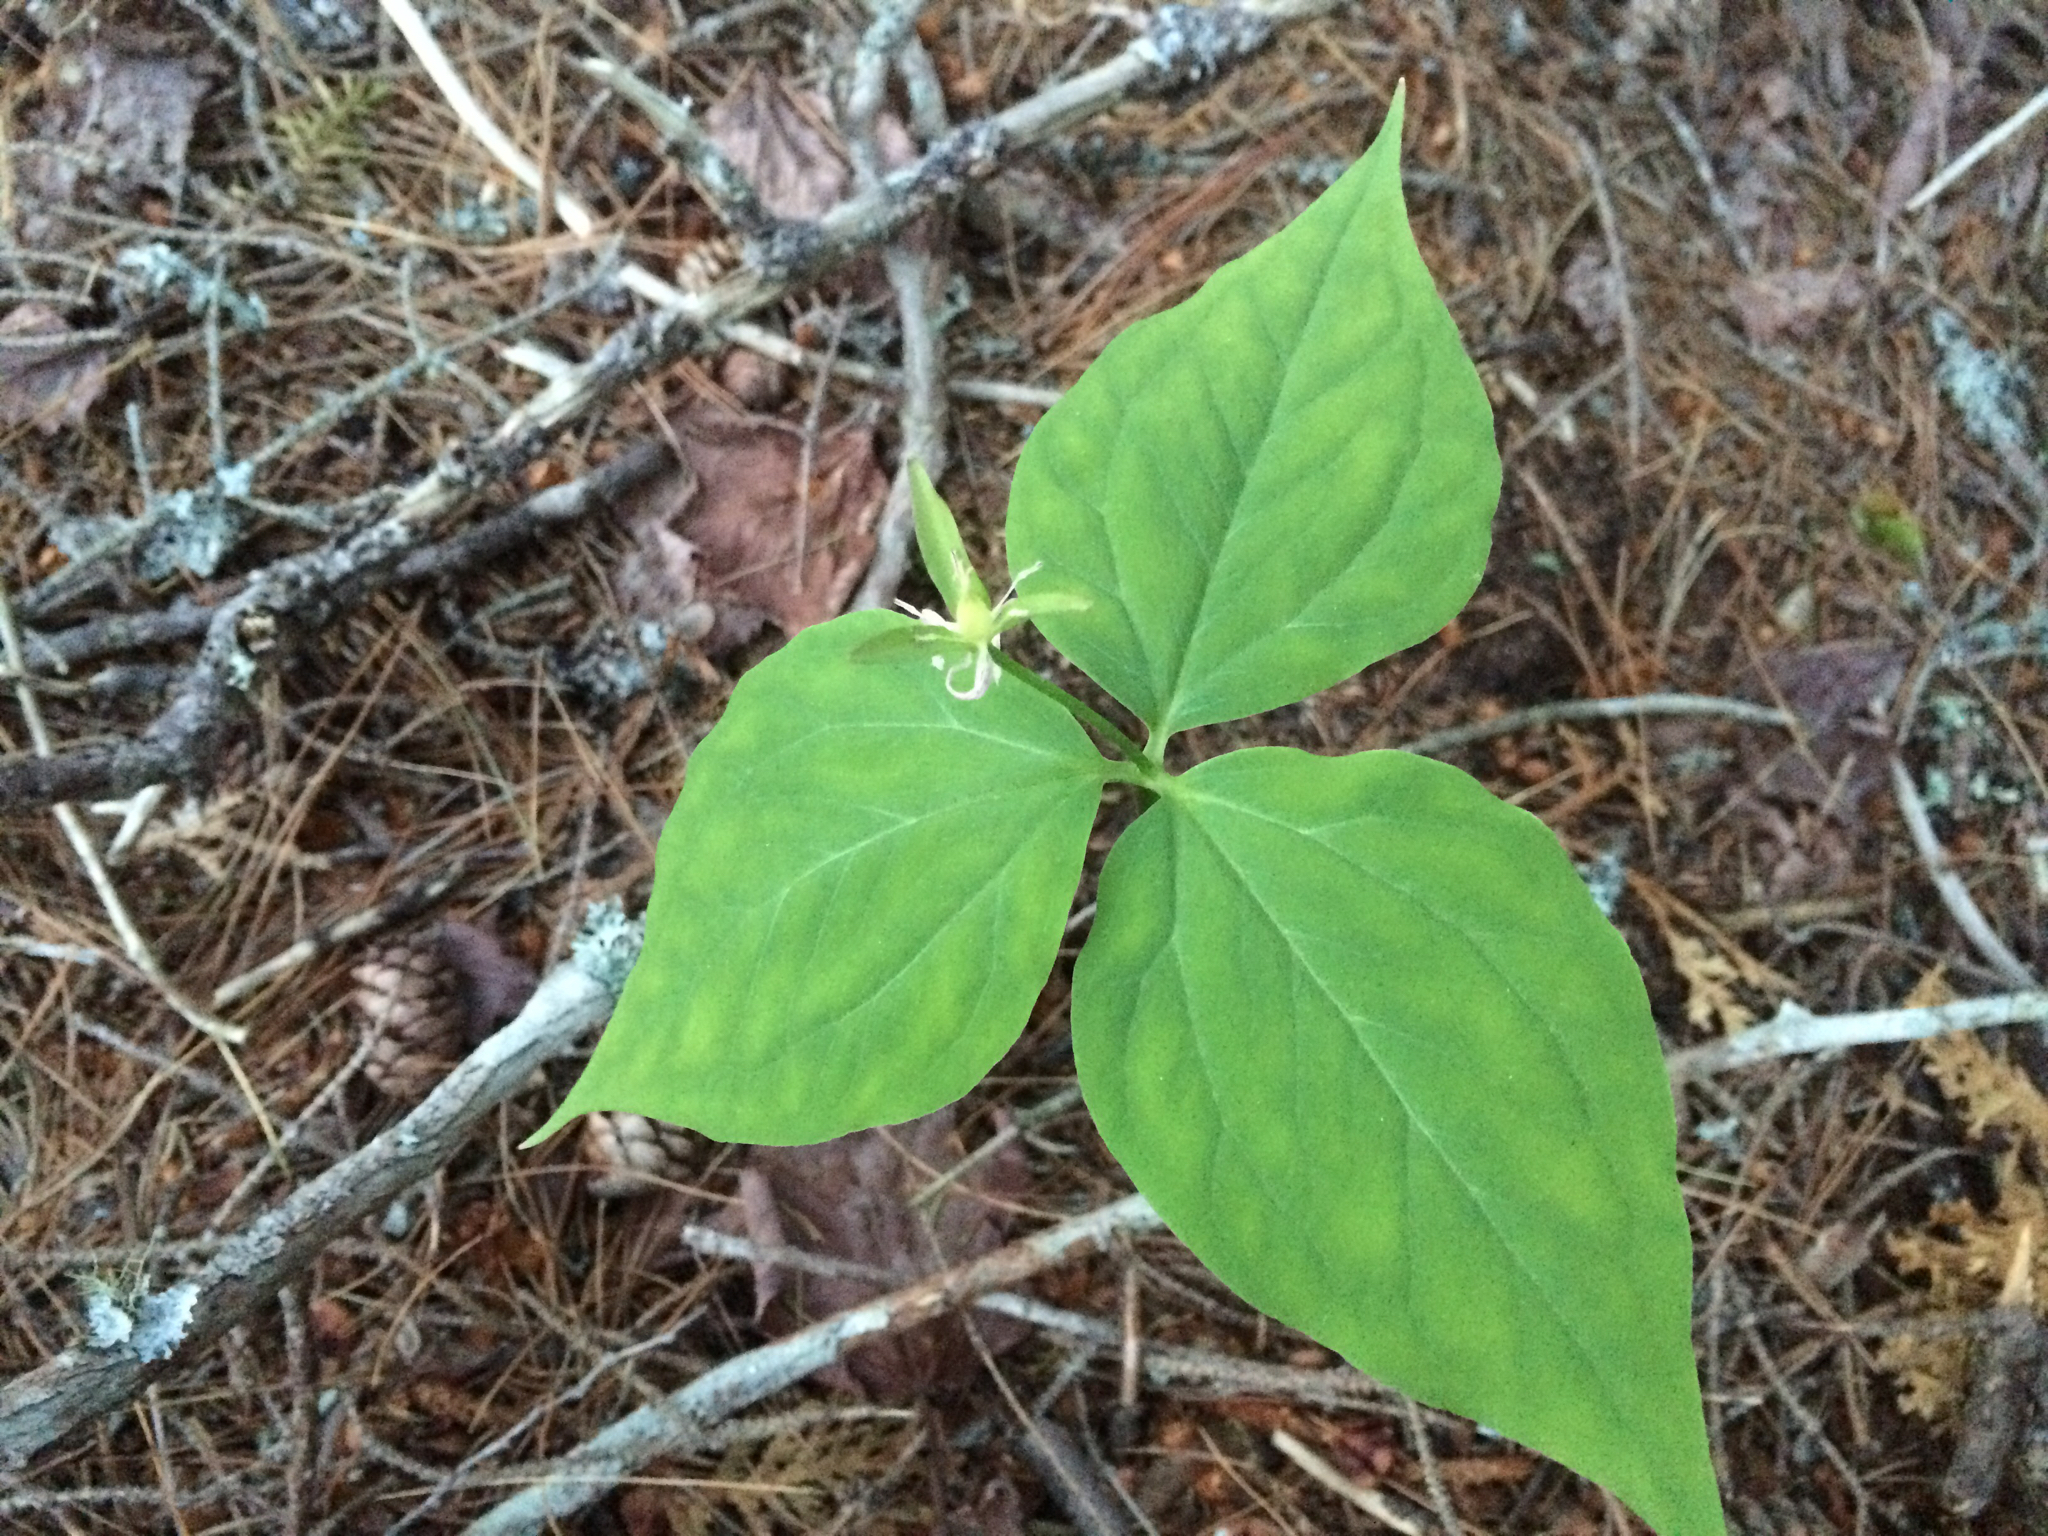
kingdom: Plantae
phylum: Tracheophyta
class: Liliopsida
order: Liliales
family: Melanthiaceae
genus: Trillium
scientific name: Trillium undulatum
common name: Paint trillium
